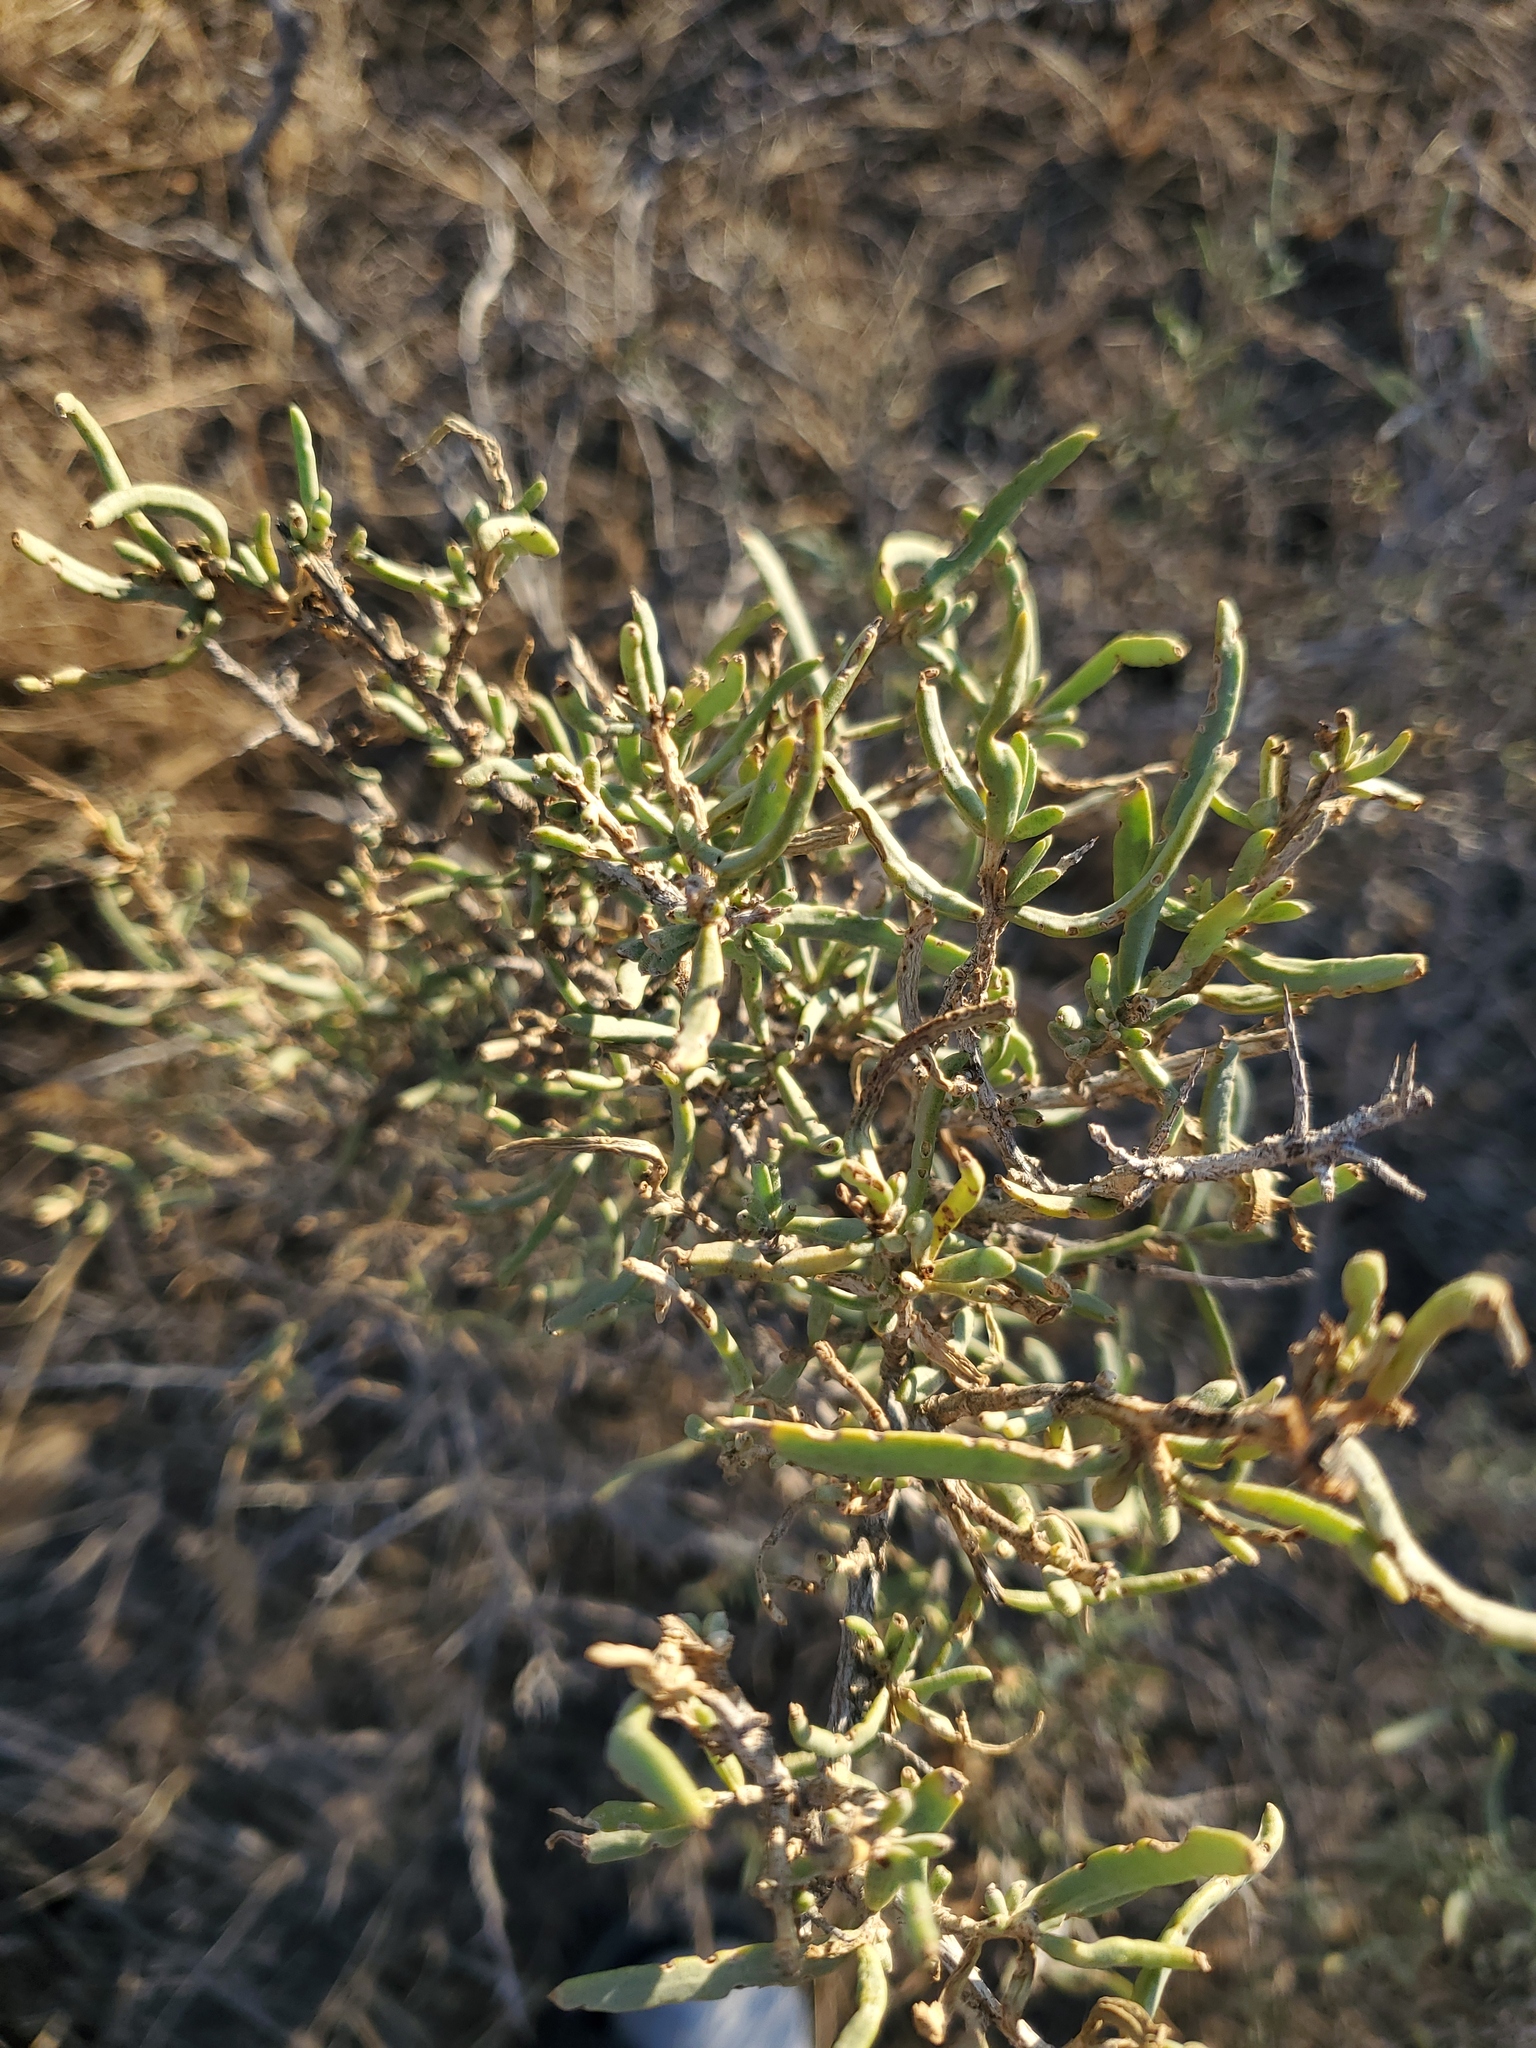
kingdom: Plantae
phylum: Tracheophyta
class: Magnoliopsida
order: Caryophyllales
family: Sarcobataceae
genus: Sarcobatus
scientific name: Sarcobatus vermiculatus
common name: Greasewood
